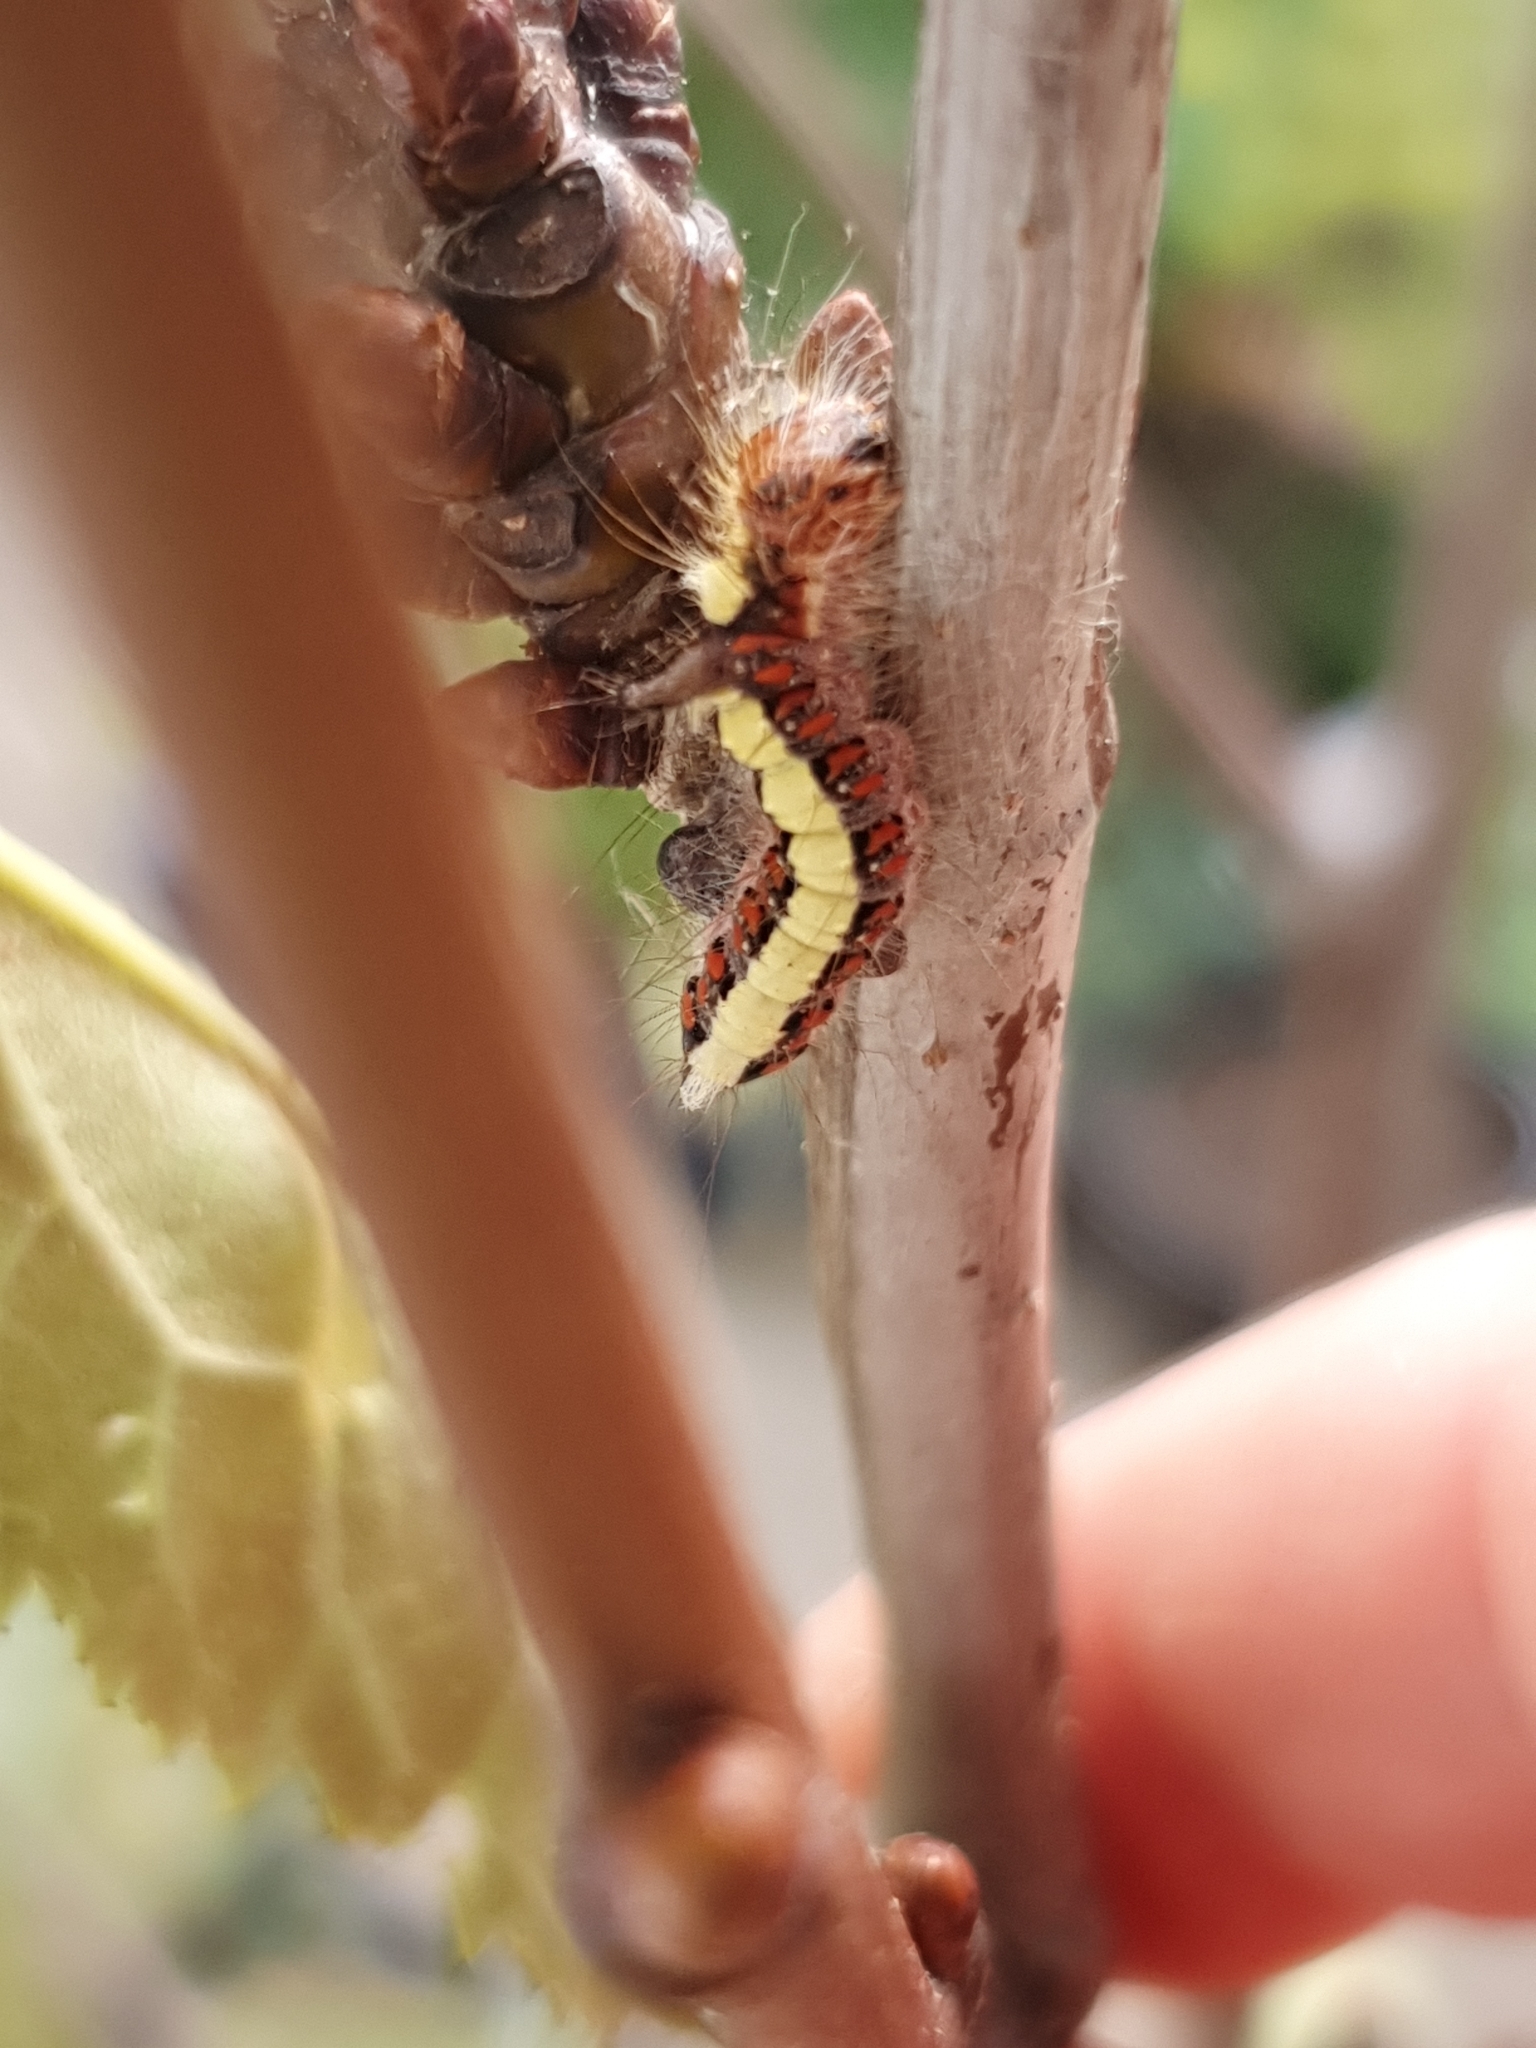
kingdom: Animalia
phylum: Arthropoda
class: Insecta
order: Lepidoptera
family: Noctuidae
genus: Acronicta
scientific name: Acronicta psi
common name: Grey dagger
